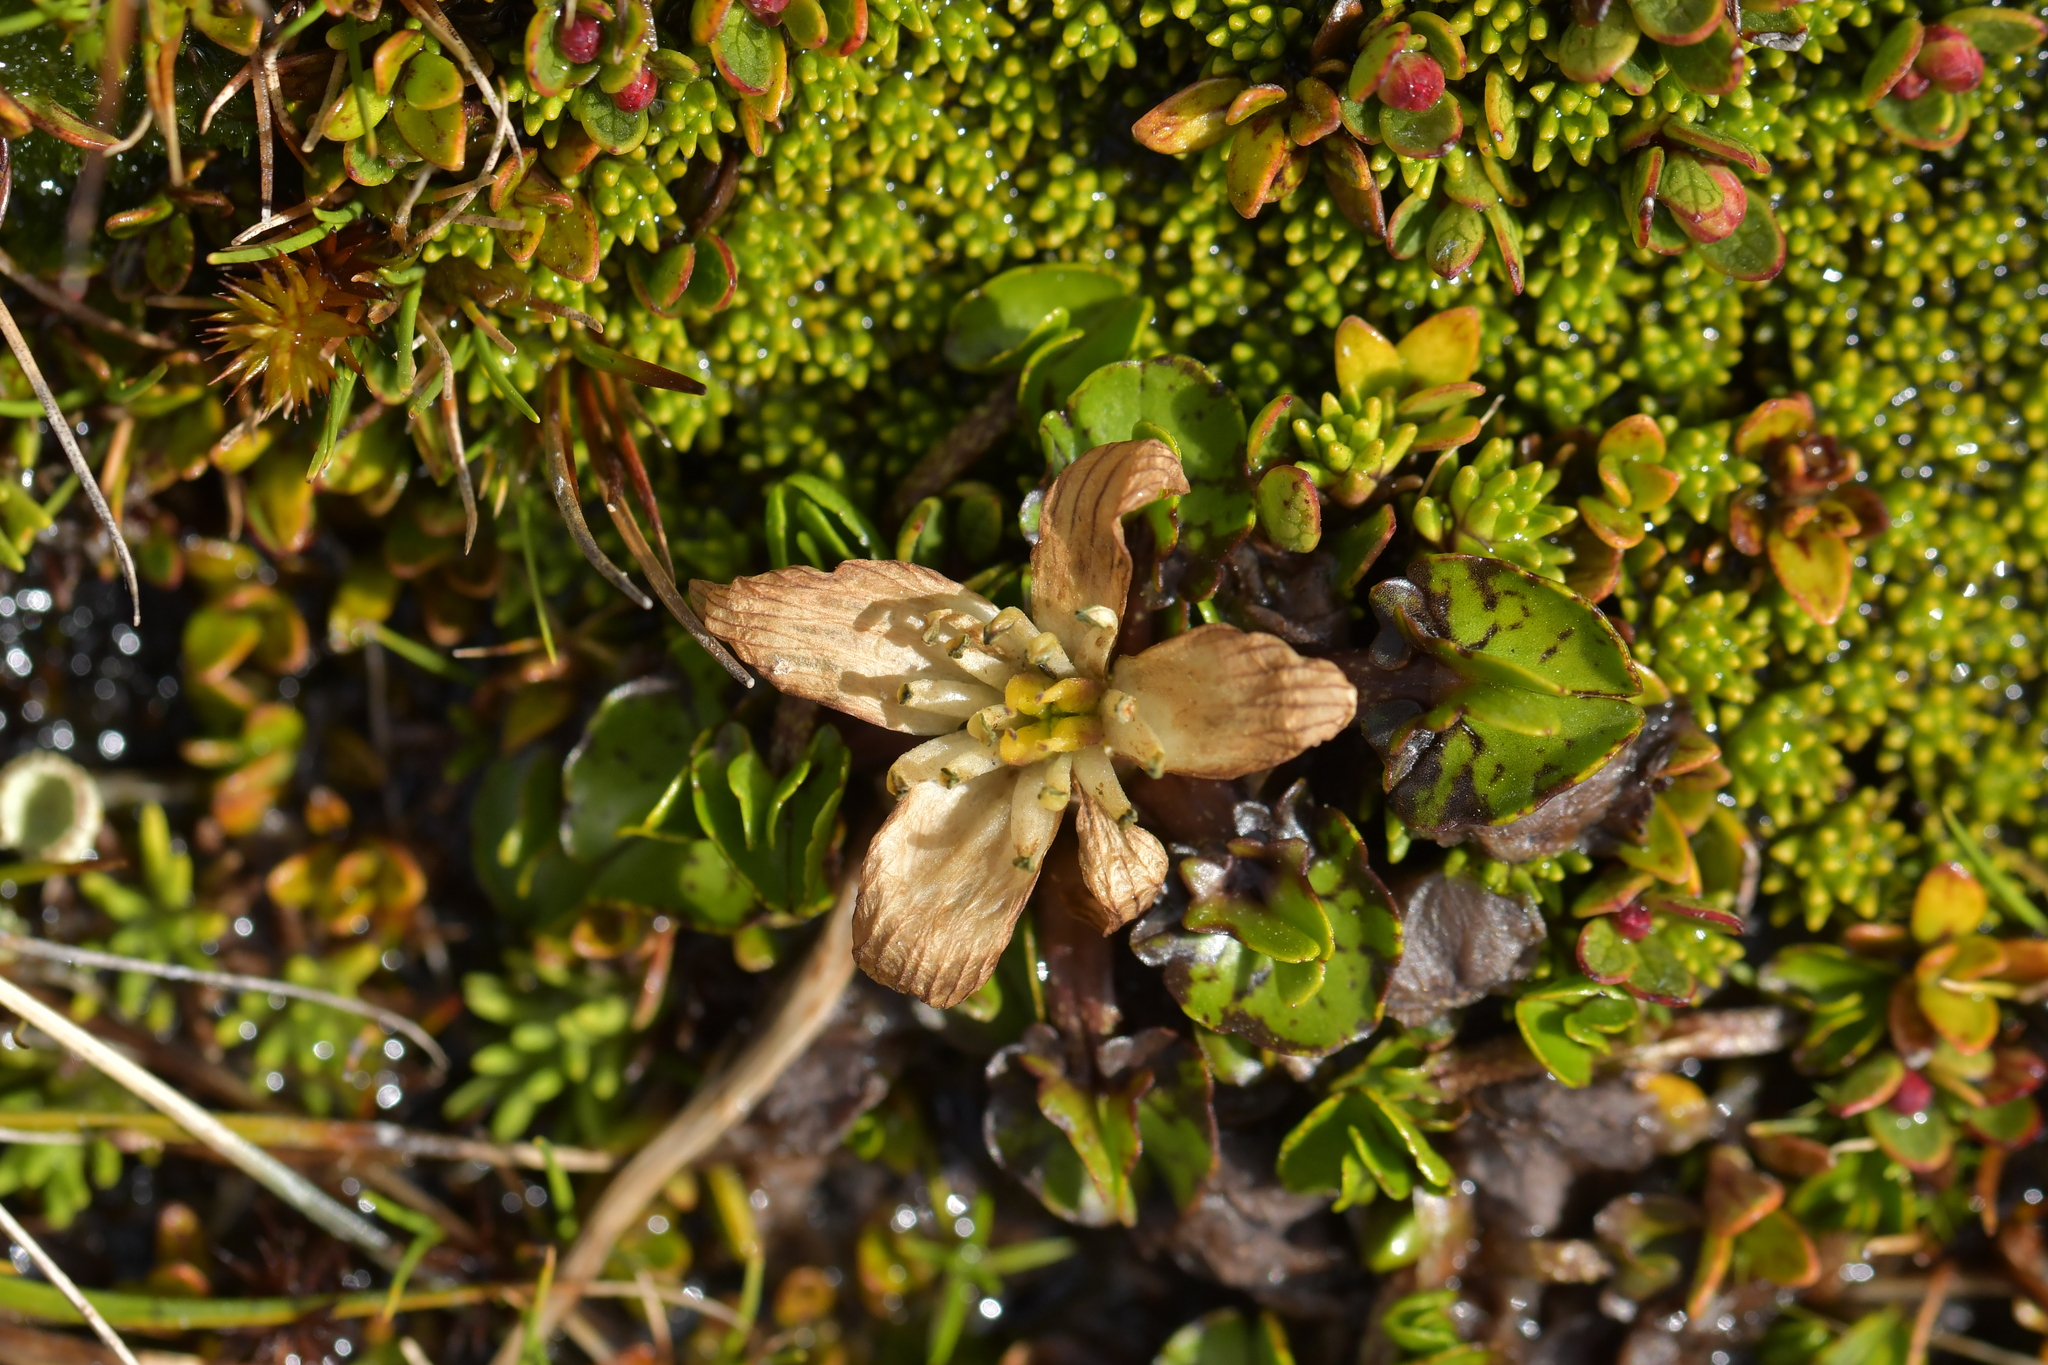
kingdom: Plantae
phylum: Tracheophyta
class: Magnoliopsida
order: Ranunculales
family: Ranunculaceae
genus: Caltha
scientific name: Caltha obtusa
